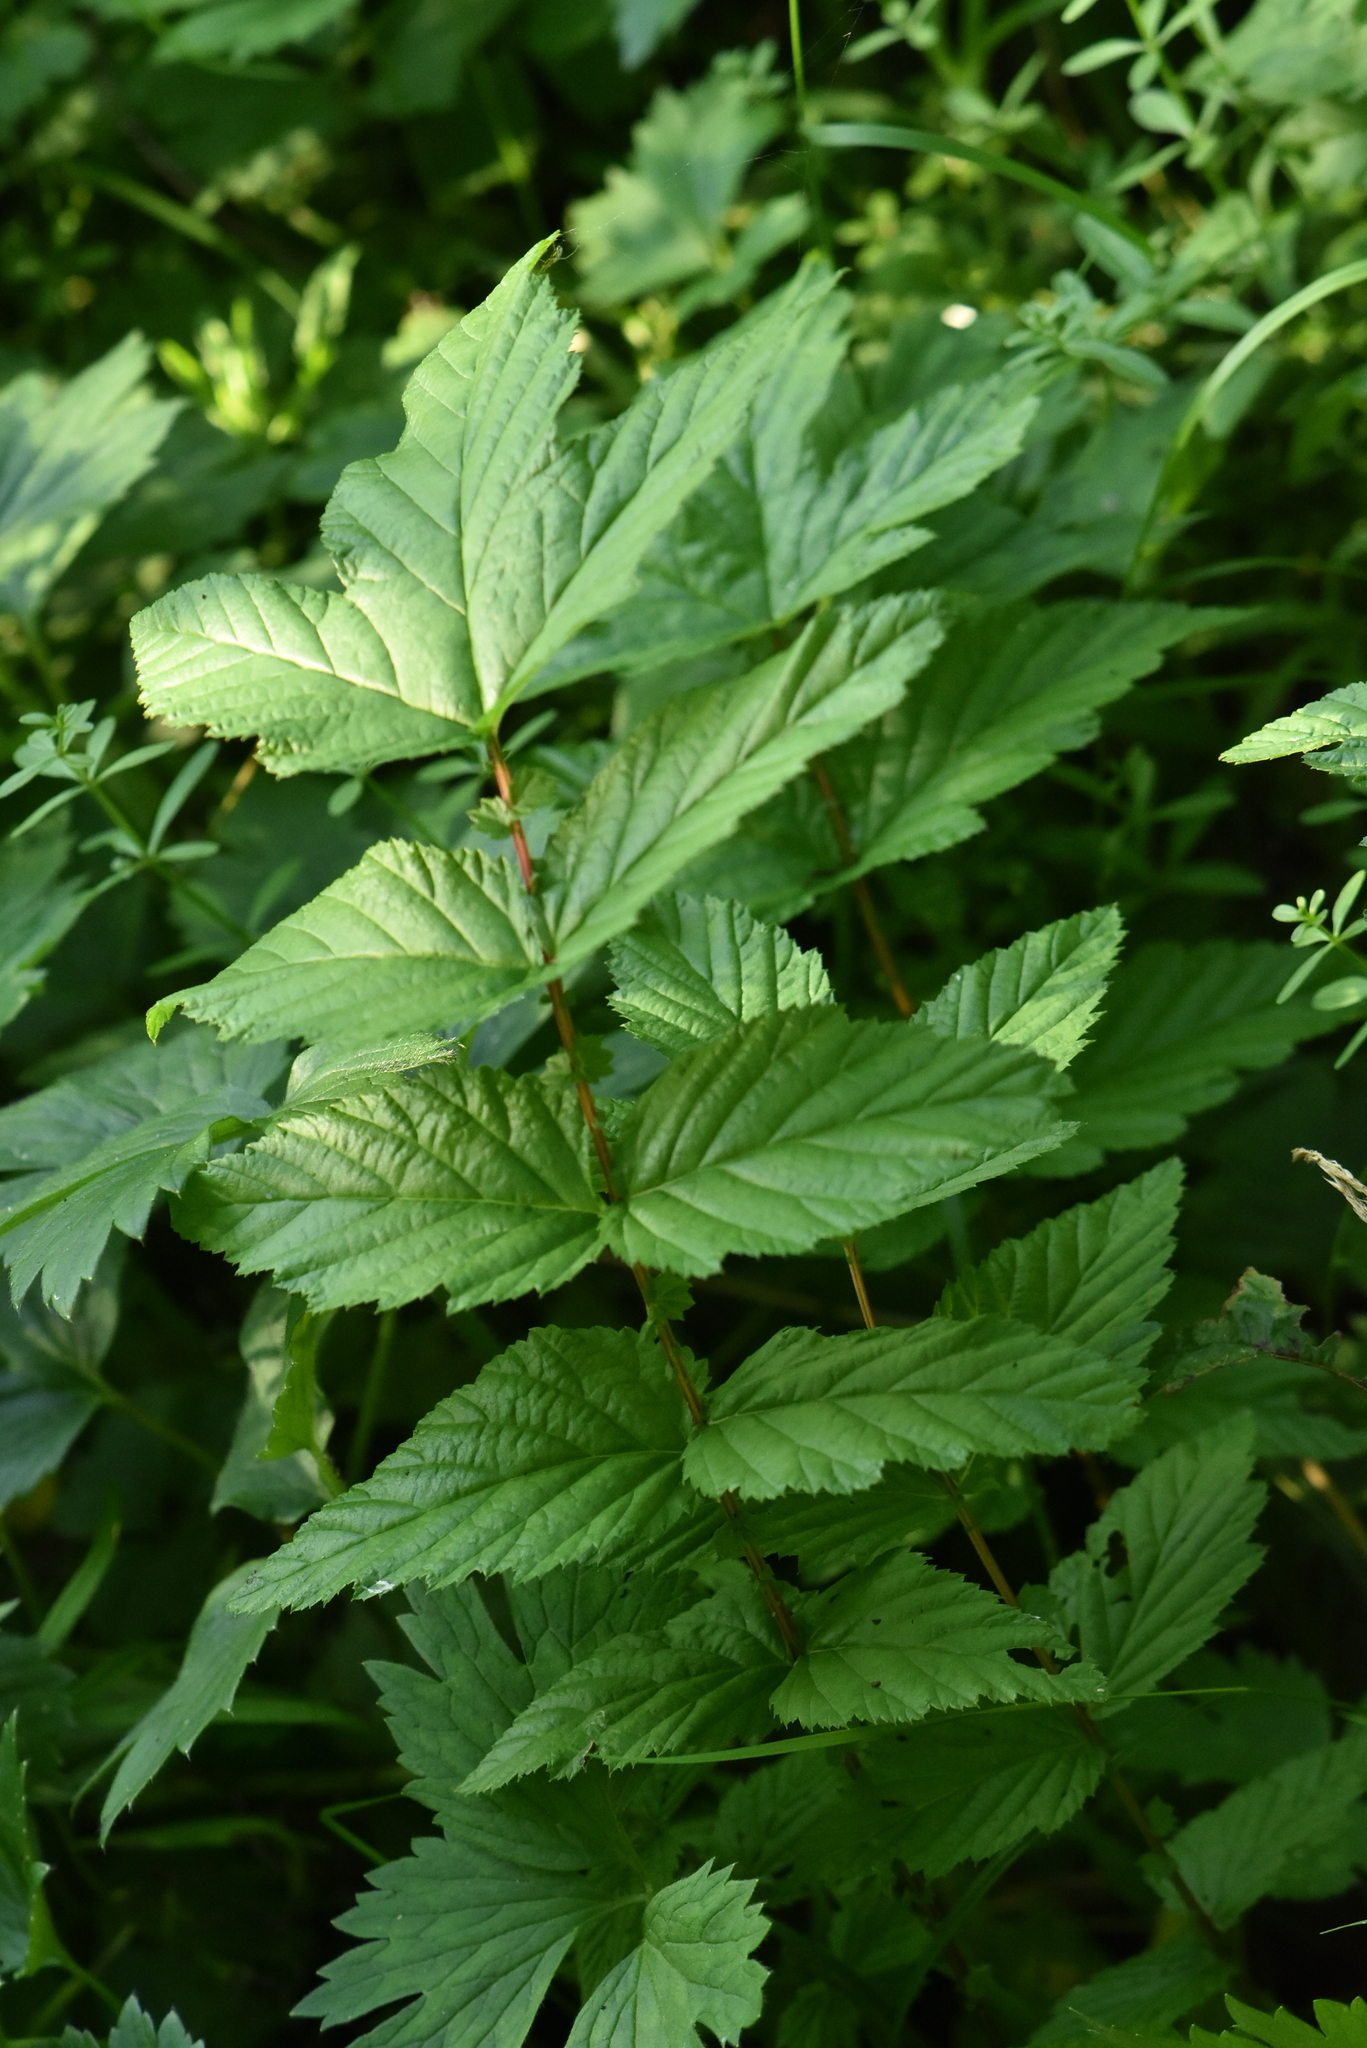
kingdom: Plantae
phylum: Tracheophyta
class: Magnoliopsida
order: Rosales
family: Rosaceae
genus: Filipendula
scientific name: Filipendula ulmaria
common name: Meadowsweet
